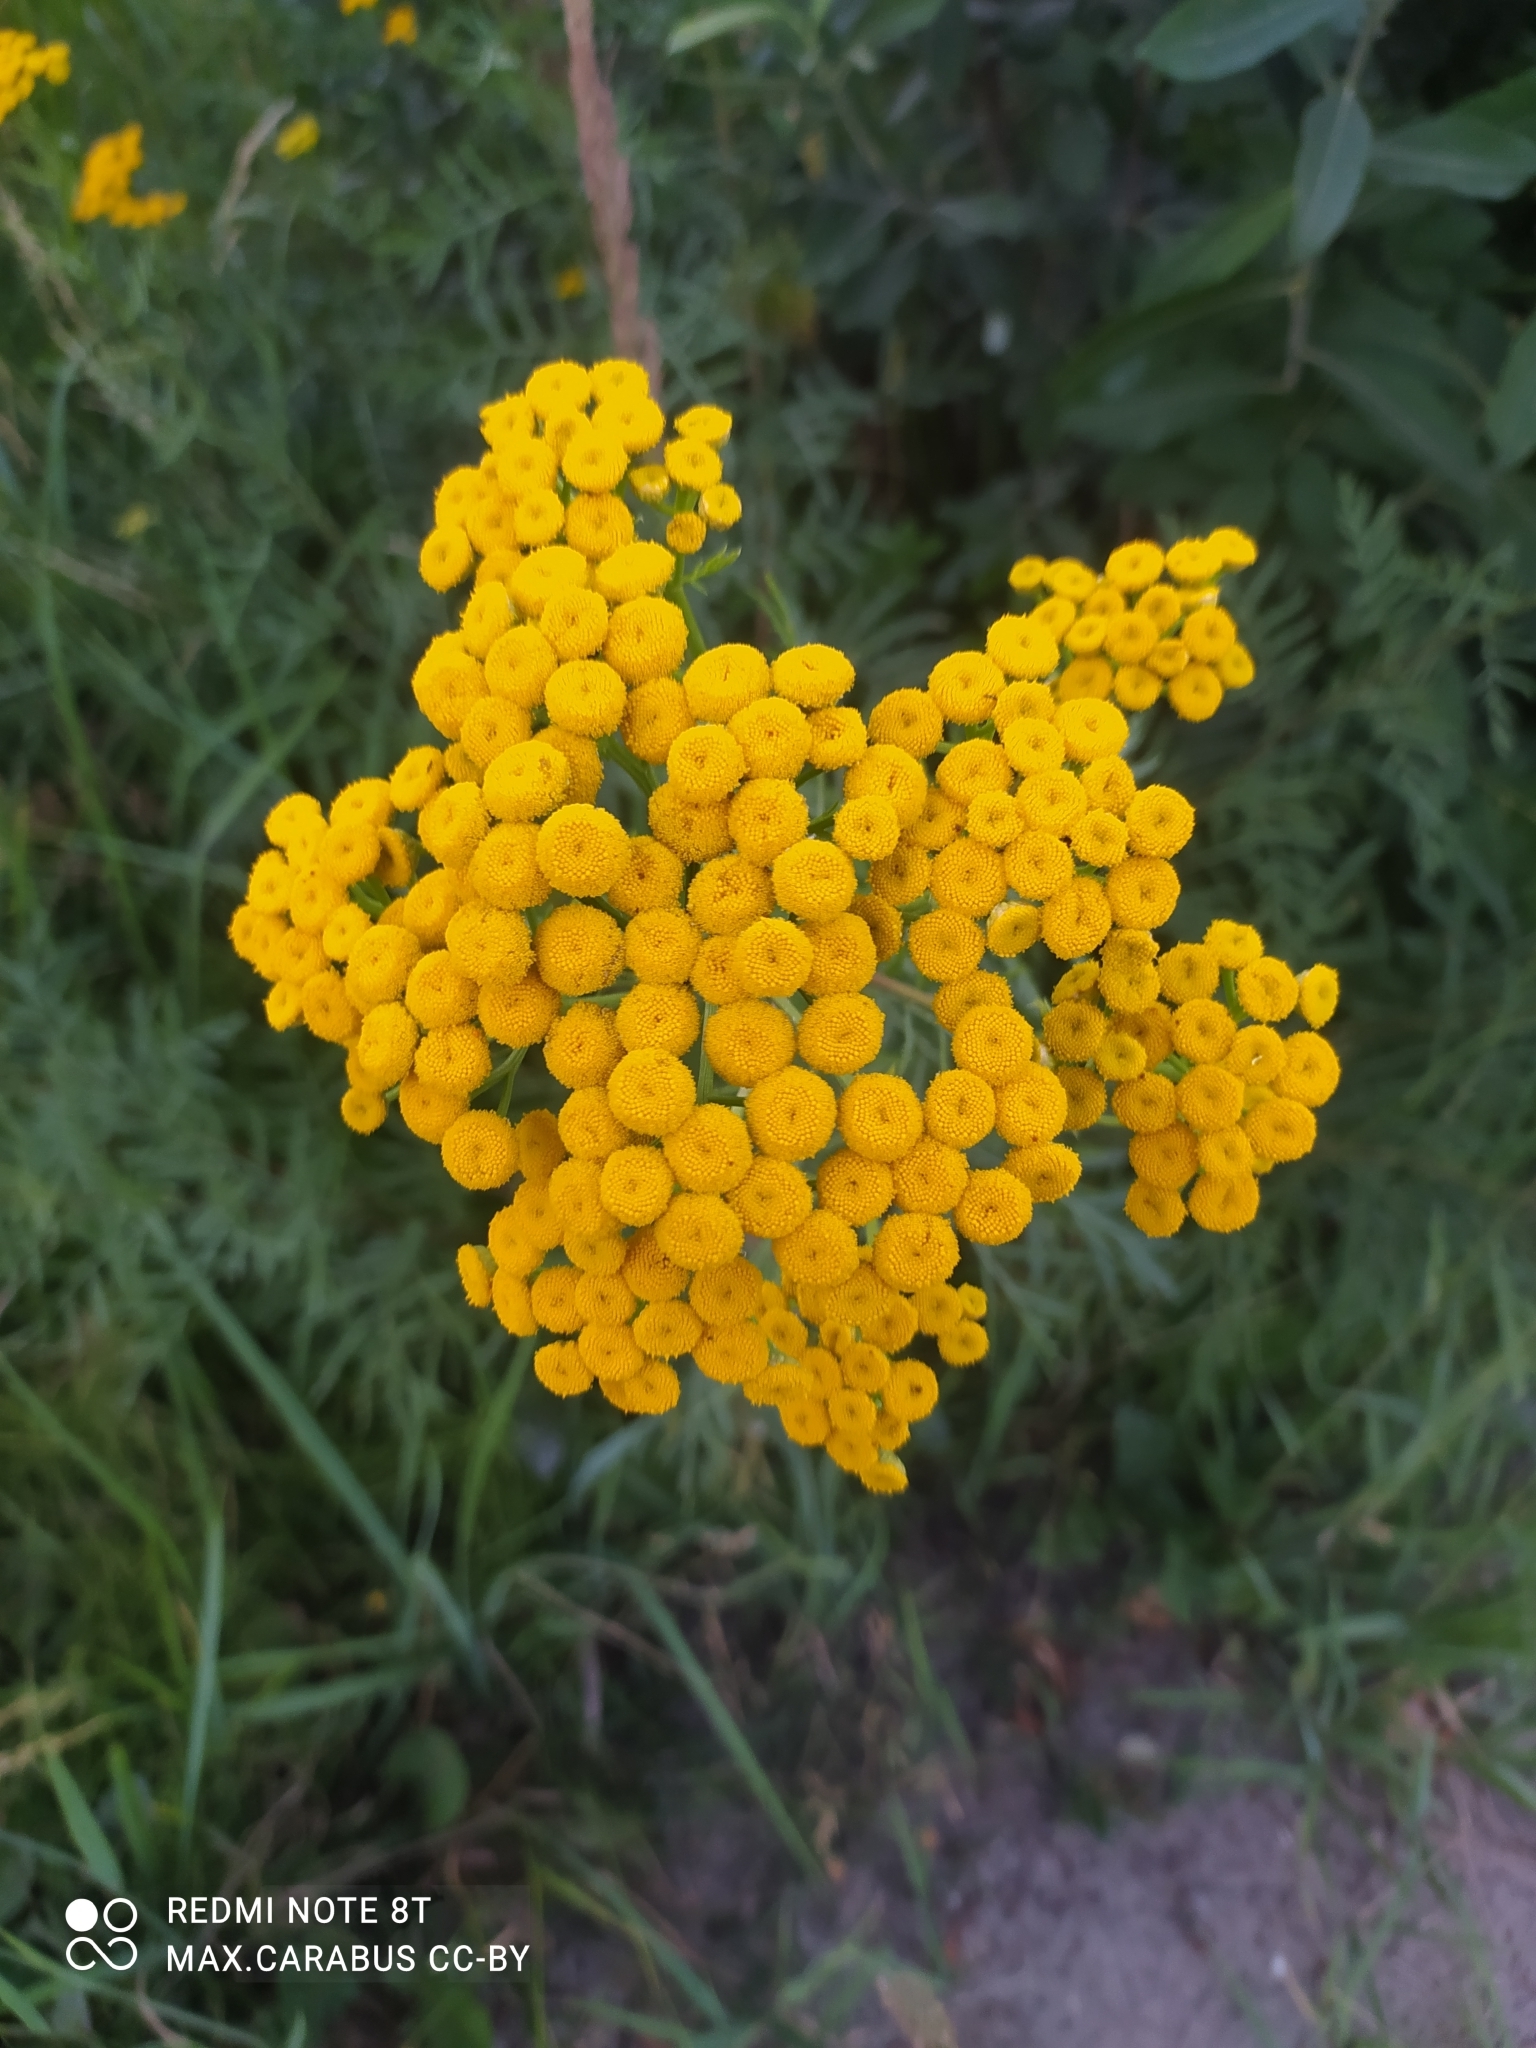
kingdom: Plantae
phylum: Tracheophyta
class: Magnoliopsida
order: Asterales
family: Asteraceae
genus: Tanacetum
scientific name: Tanacetum vulgare
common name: Common tansy
